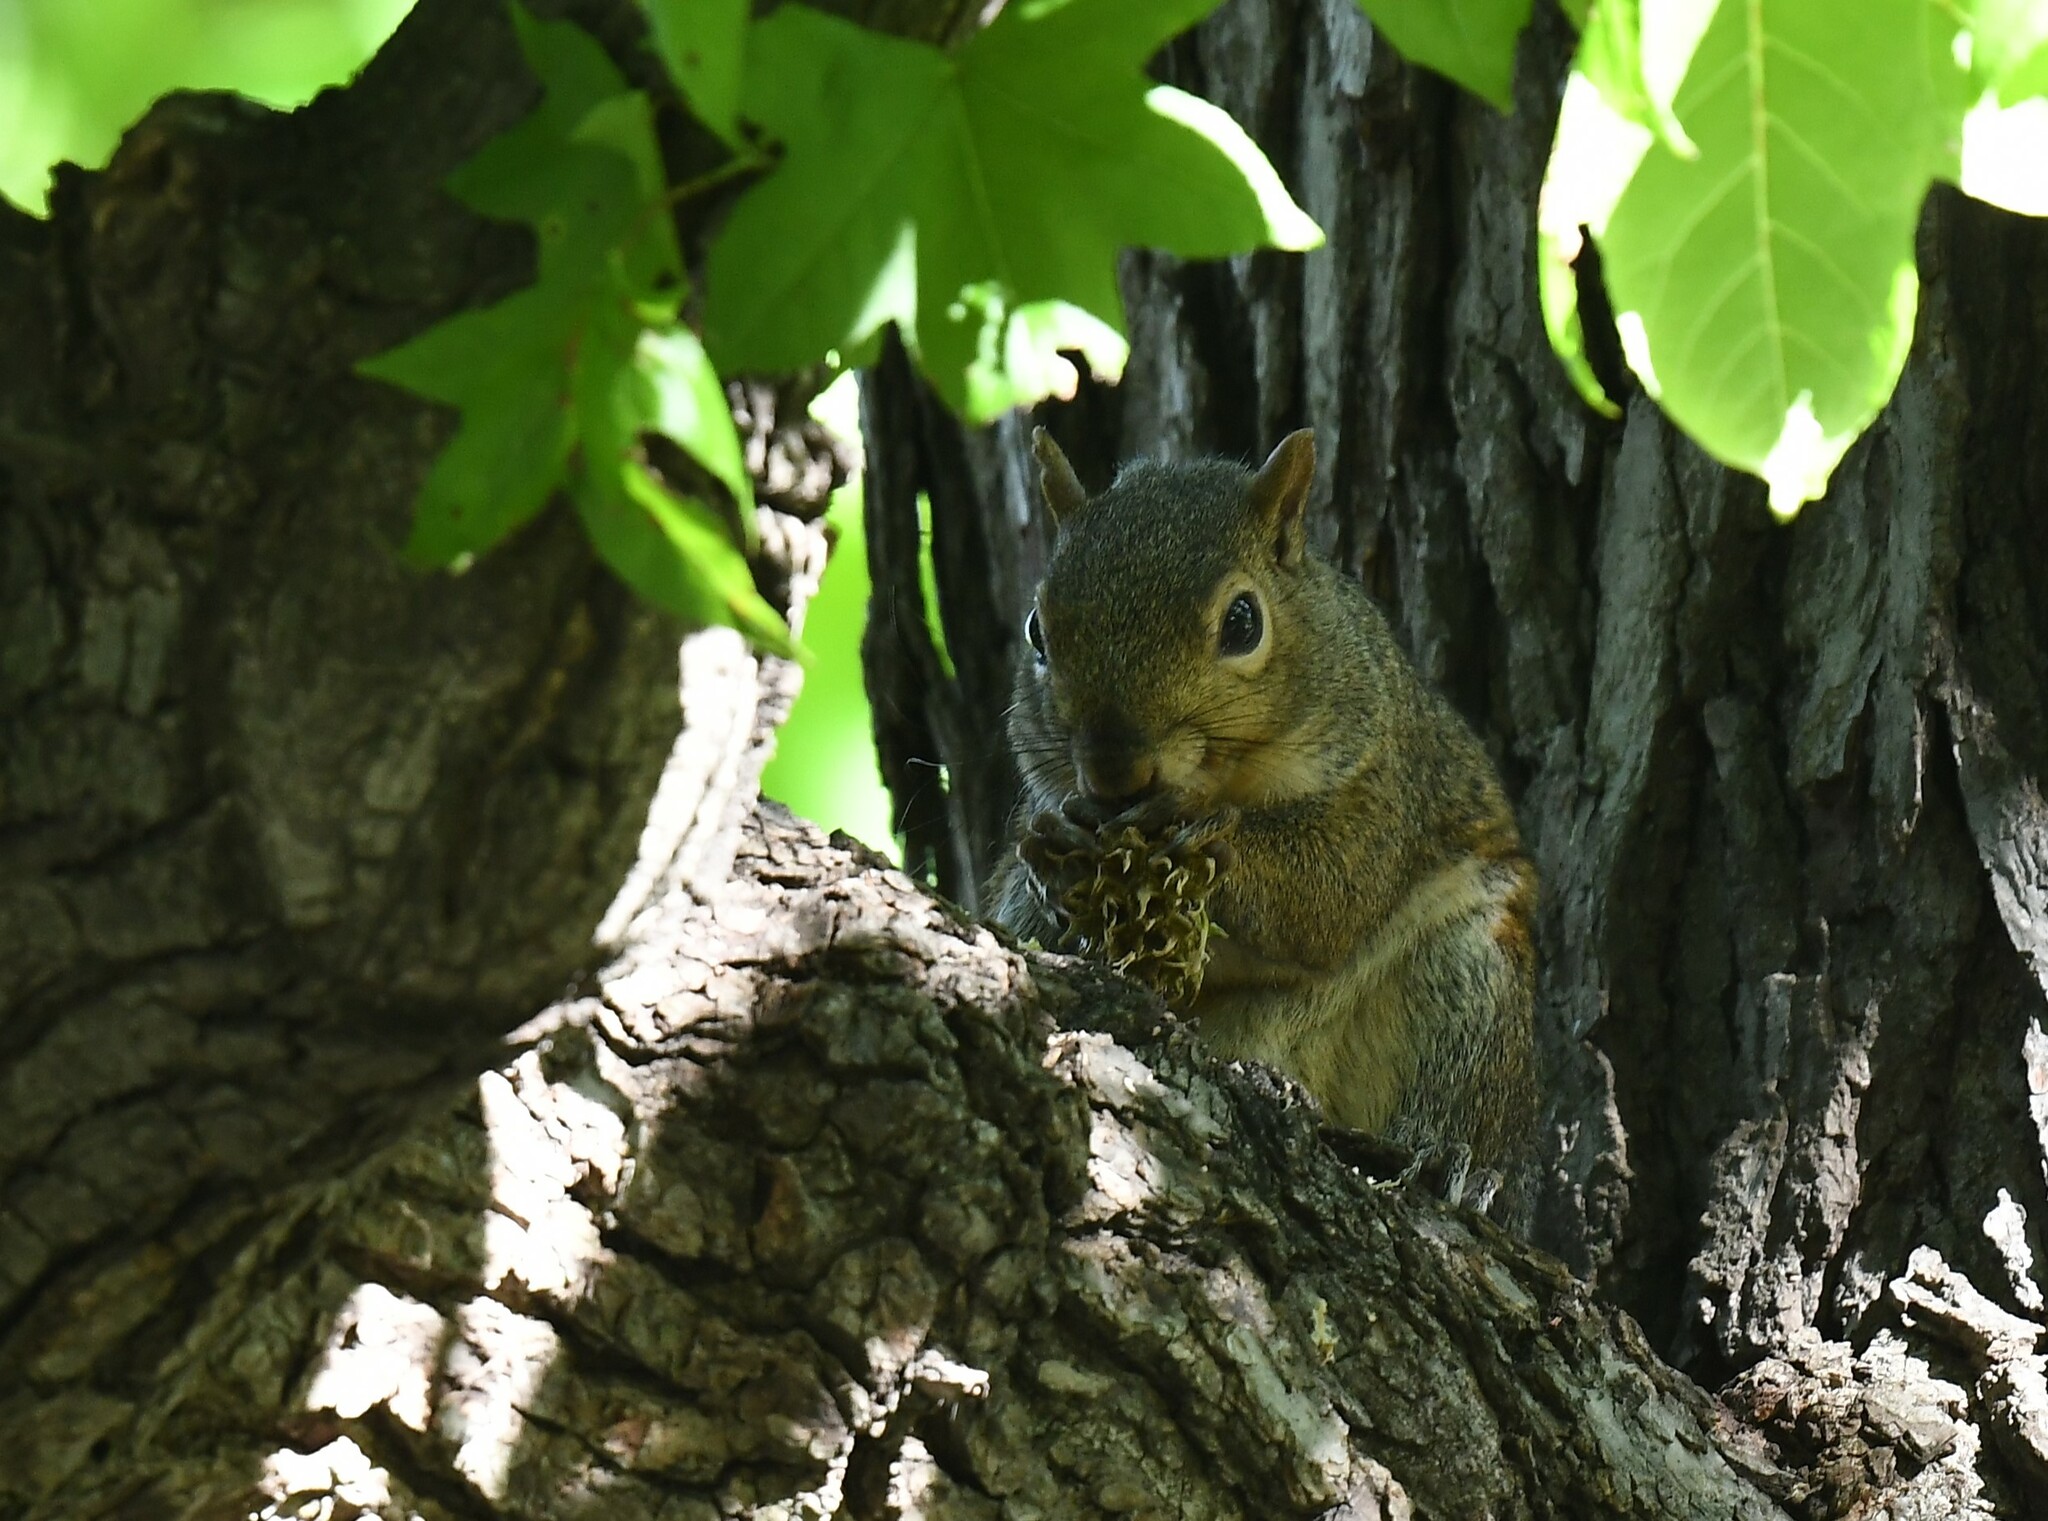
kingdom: Animalia
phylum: Chordata
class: Mammalia
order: Rodentia
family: Sciuridae
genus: Sciurus
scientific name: Sciurus carolinensis
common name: Eastern gray squirrel
